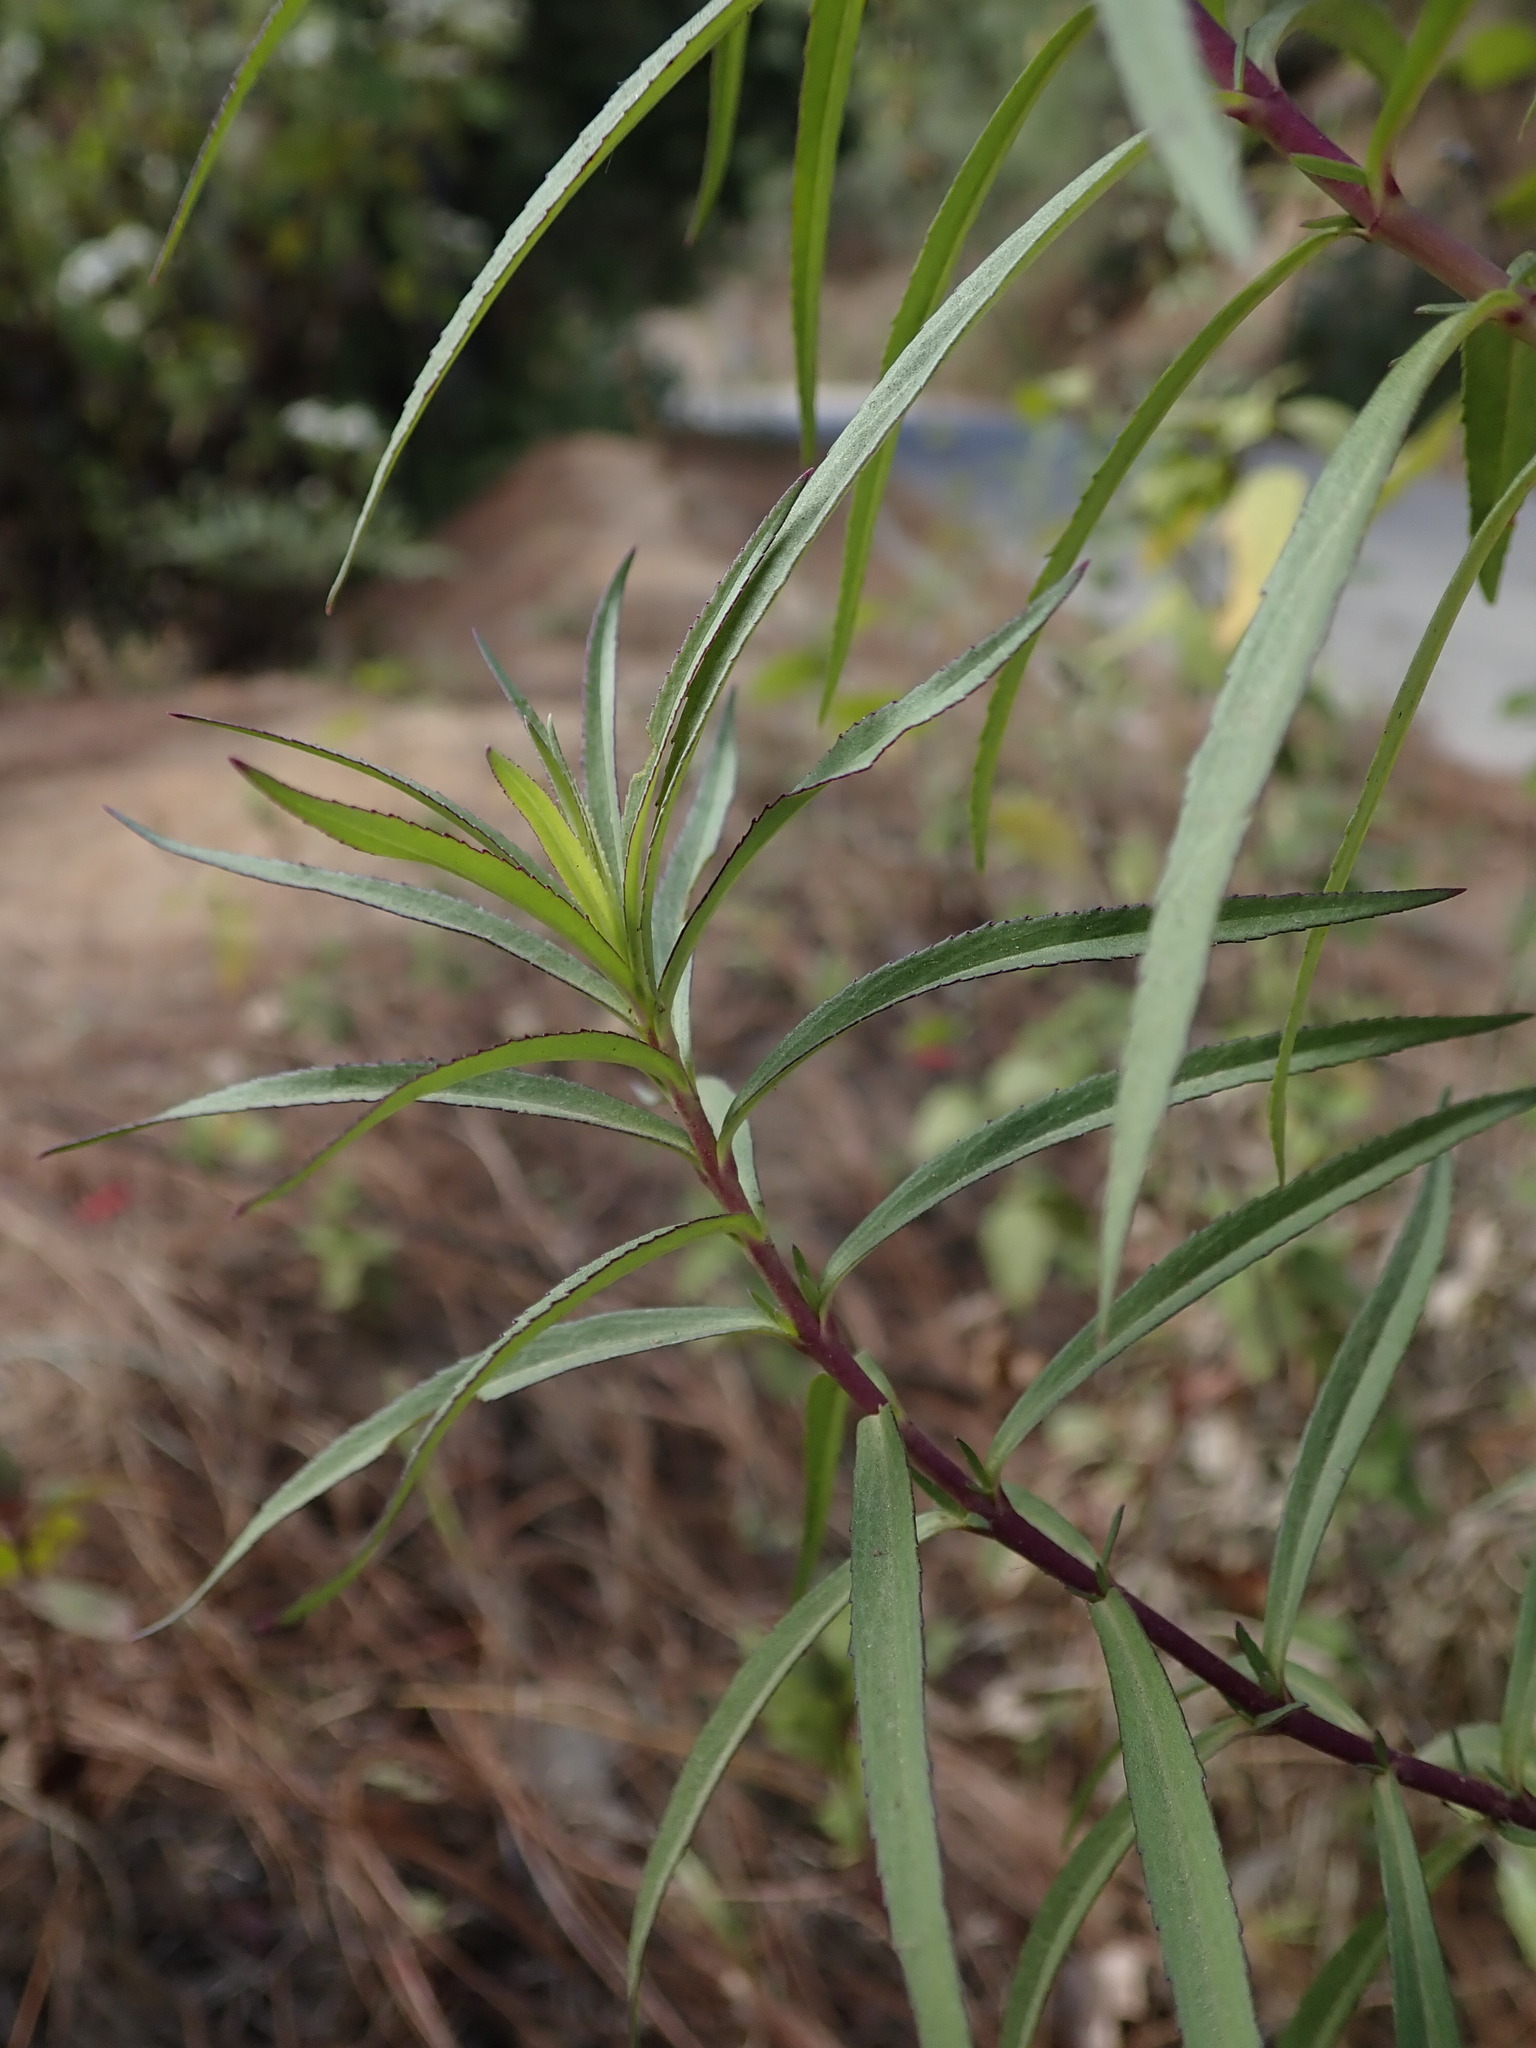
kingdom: Plantae
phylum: Tracheophyta
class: Magnoliopsida
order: Lamiales
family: Plantaginaceae
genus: Penstemon
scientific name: Penstemon roseus
